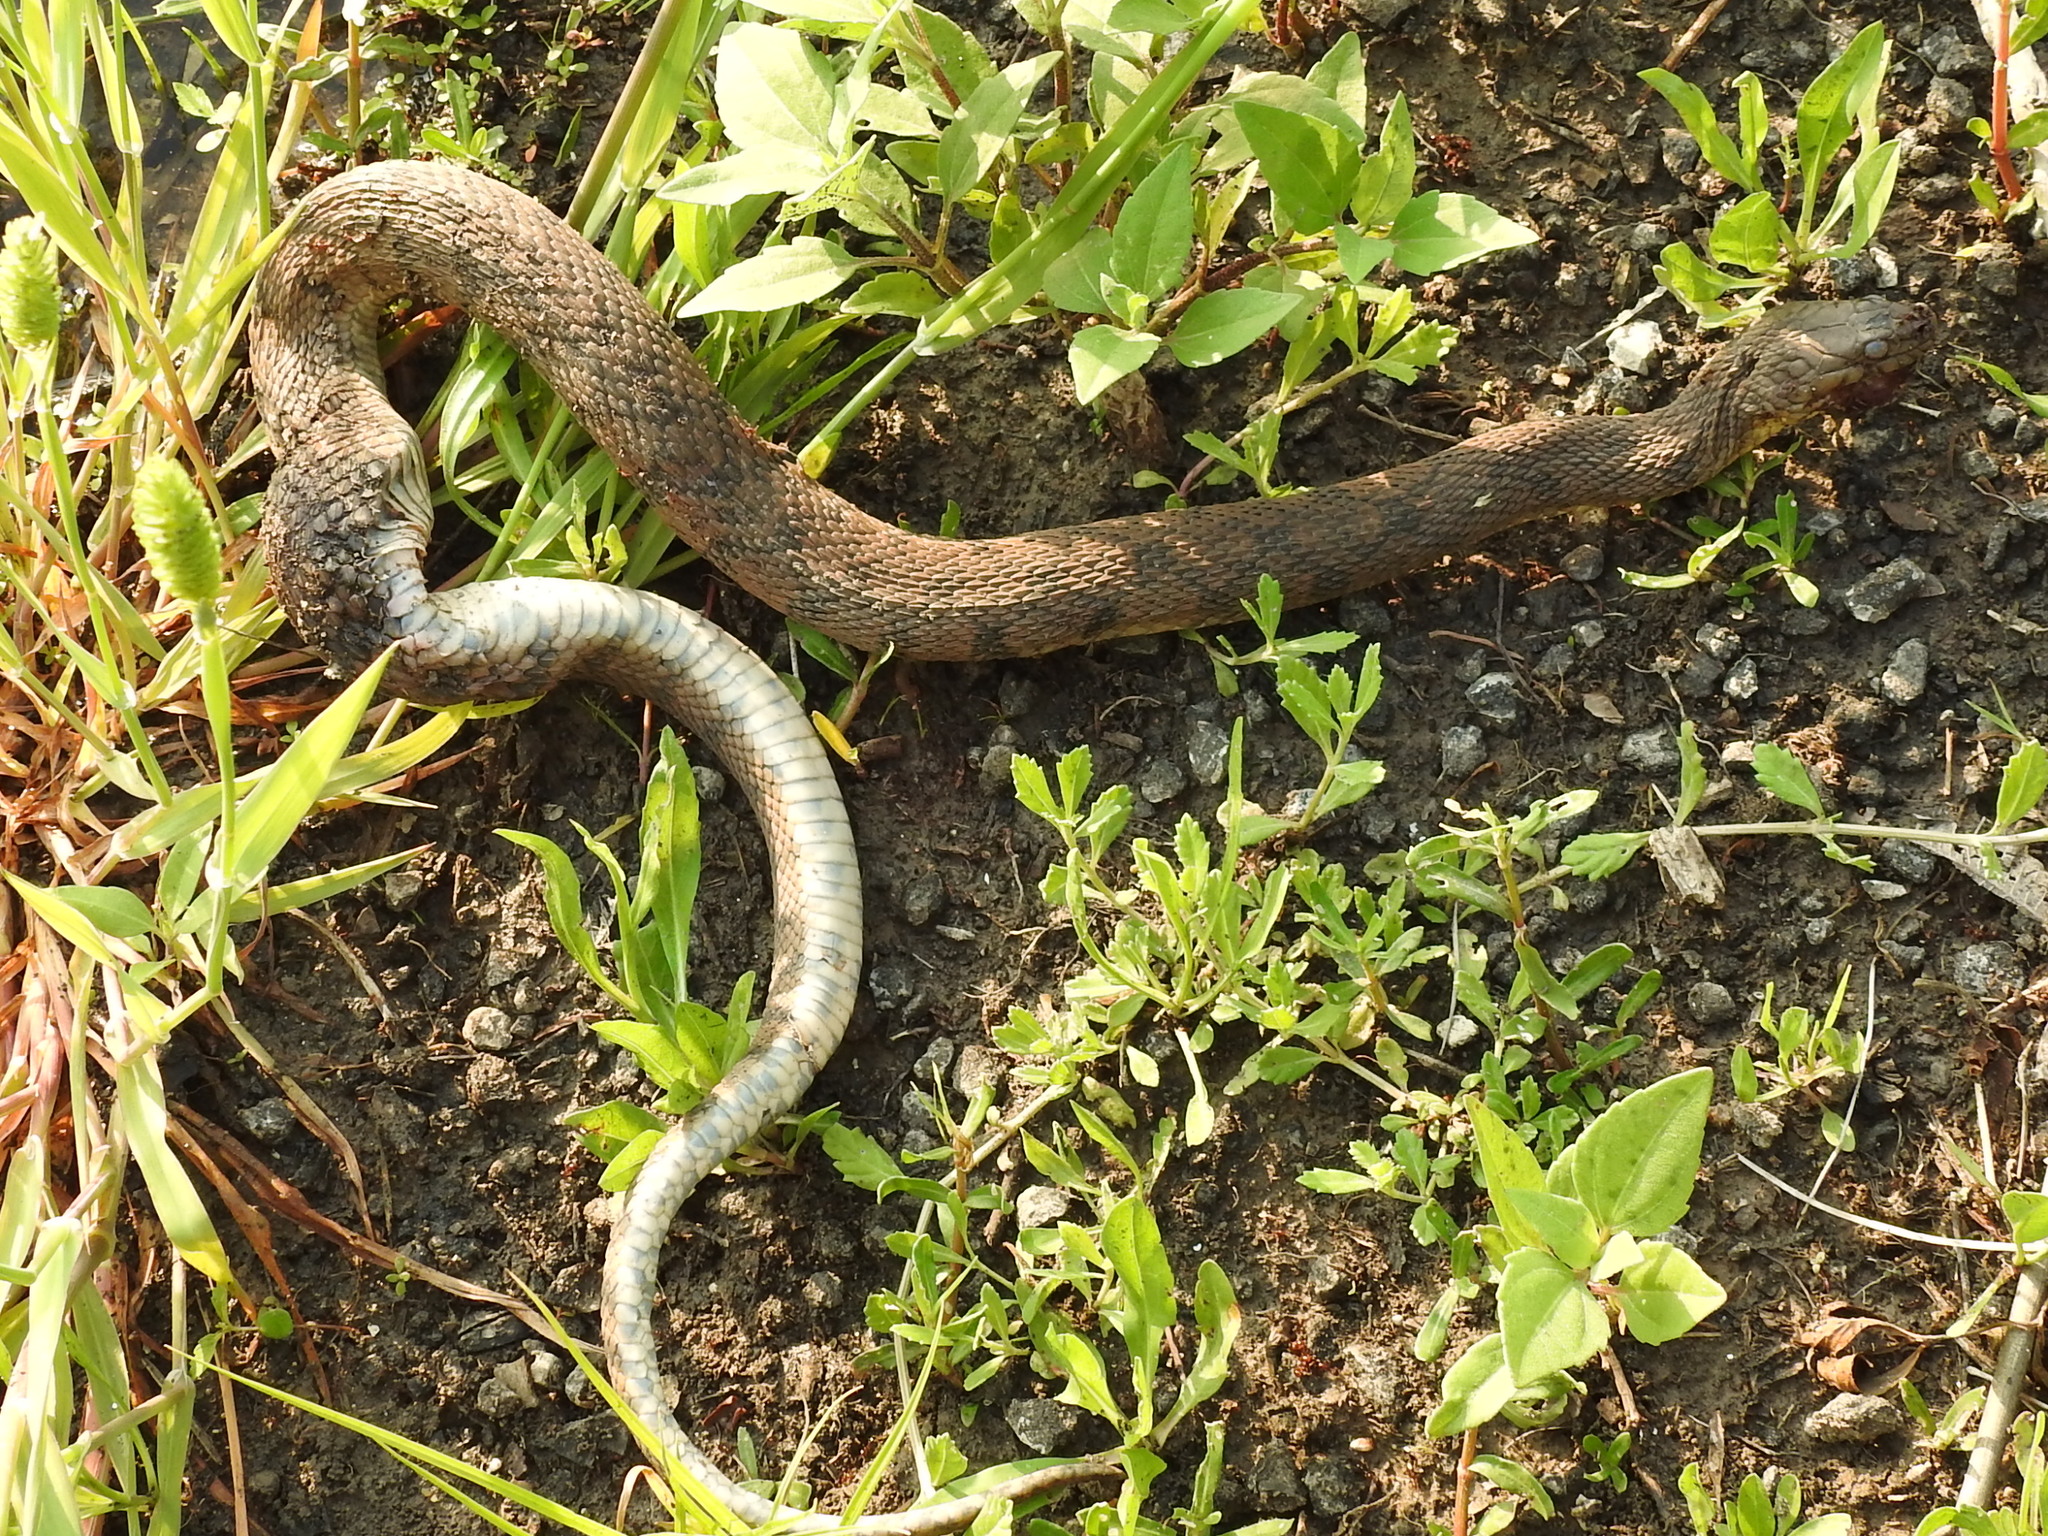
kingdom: Animalia
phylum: Chordata
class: Squamata
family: Colubridae
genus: Nerodia
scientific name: Nerodia rhombifer
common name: Diamondback water snake
